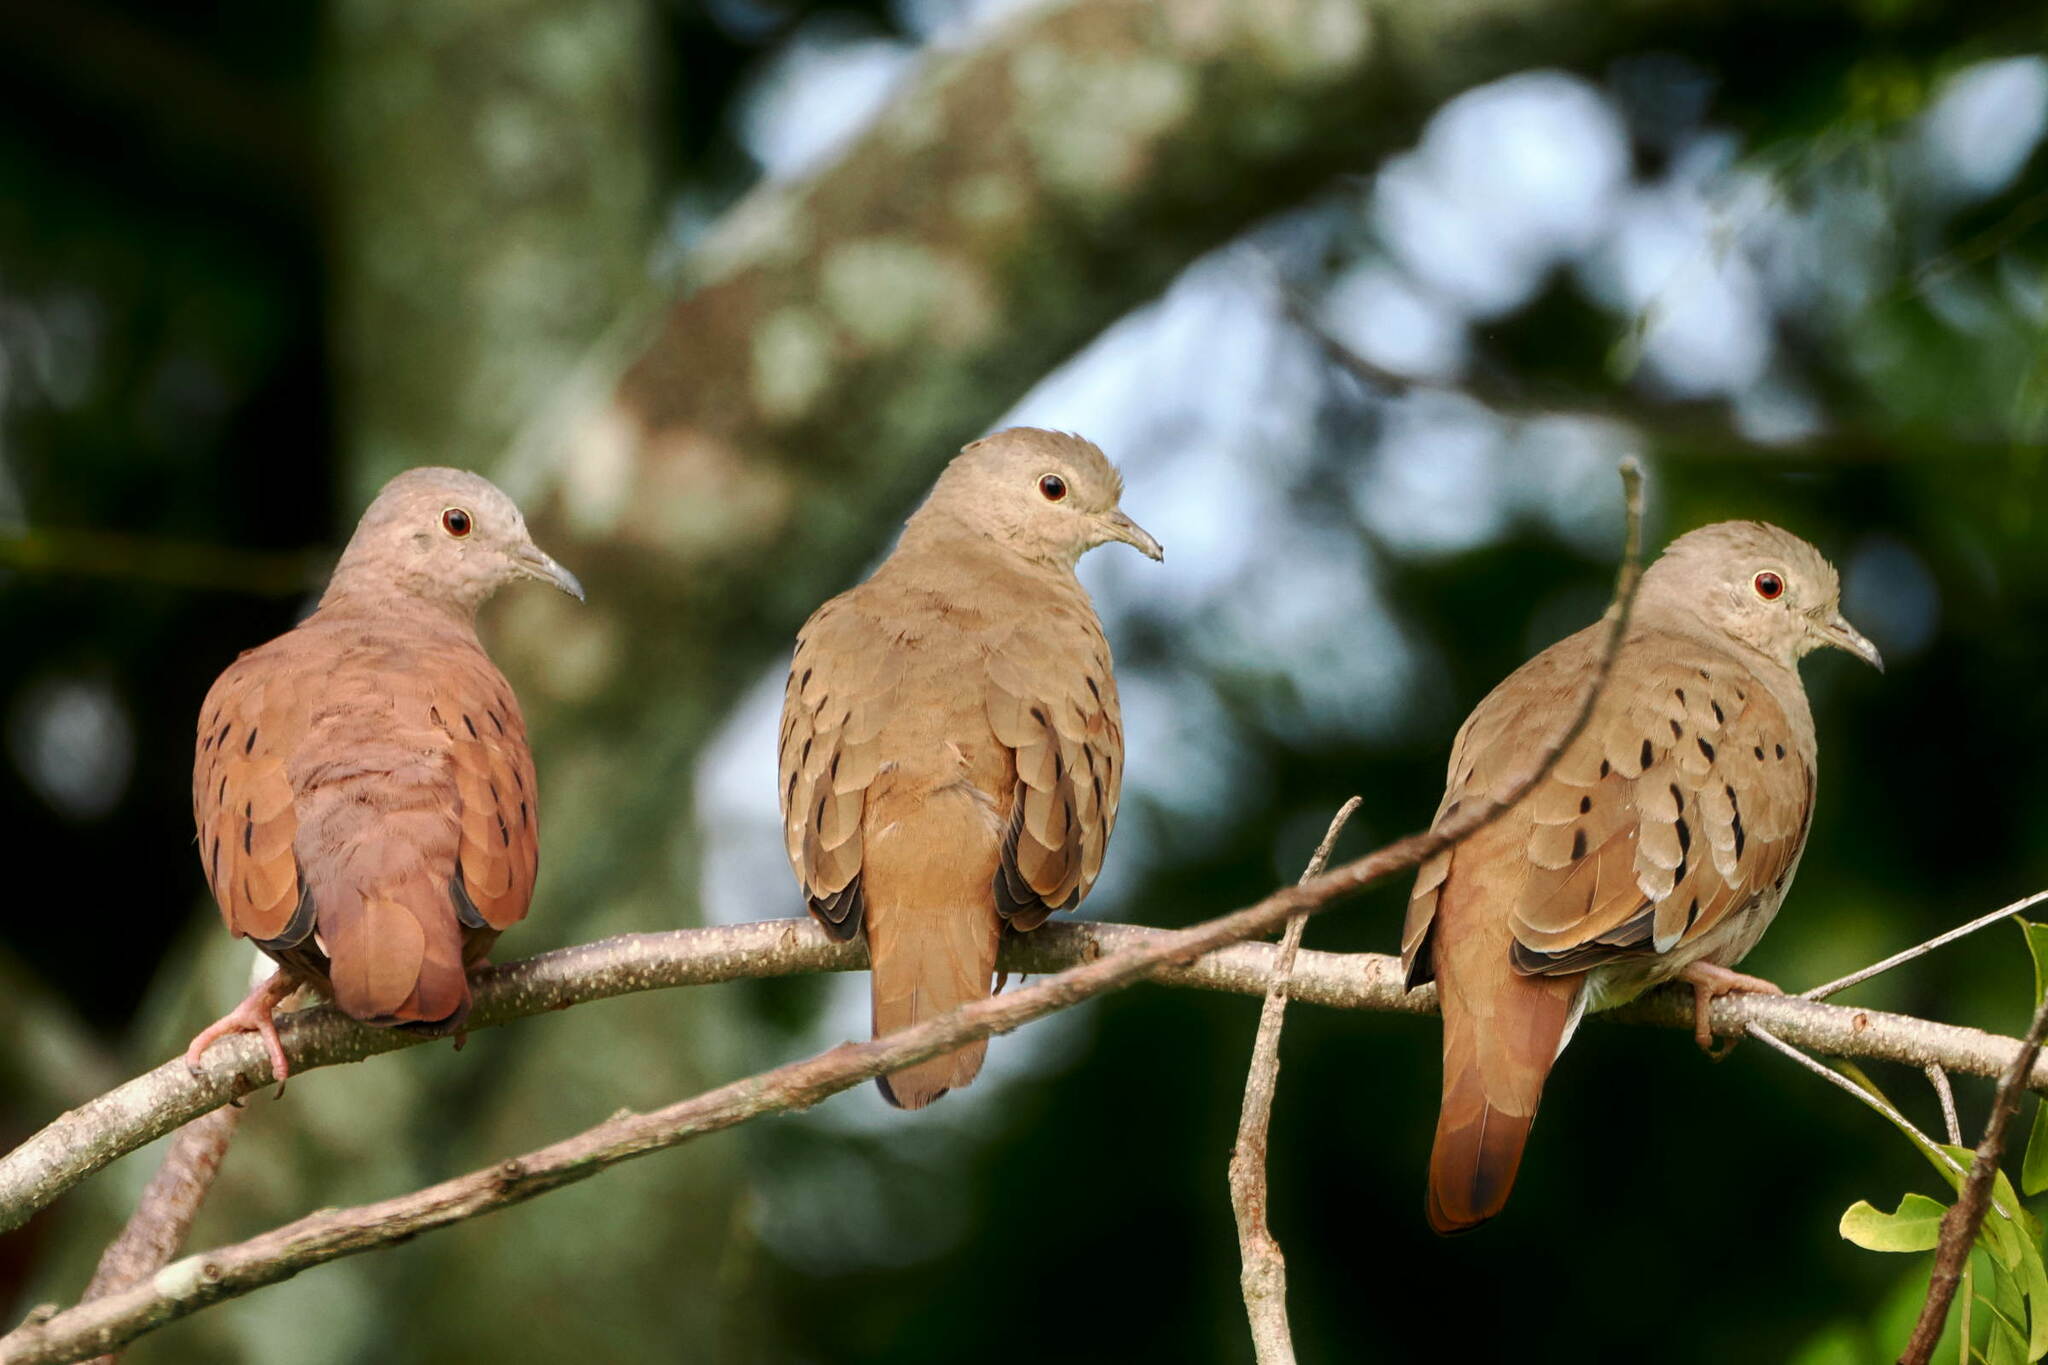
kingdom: Animalia
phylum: Chordata
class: Aves
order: Columbiformes
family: Columbidae
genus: Columbina
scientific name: Columbina talpacoti
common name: Ruddy ground dove
